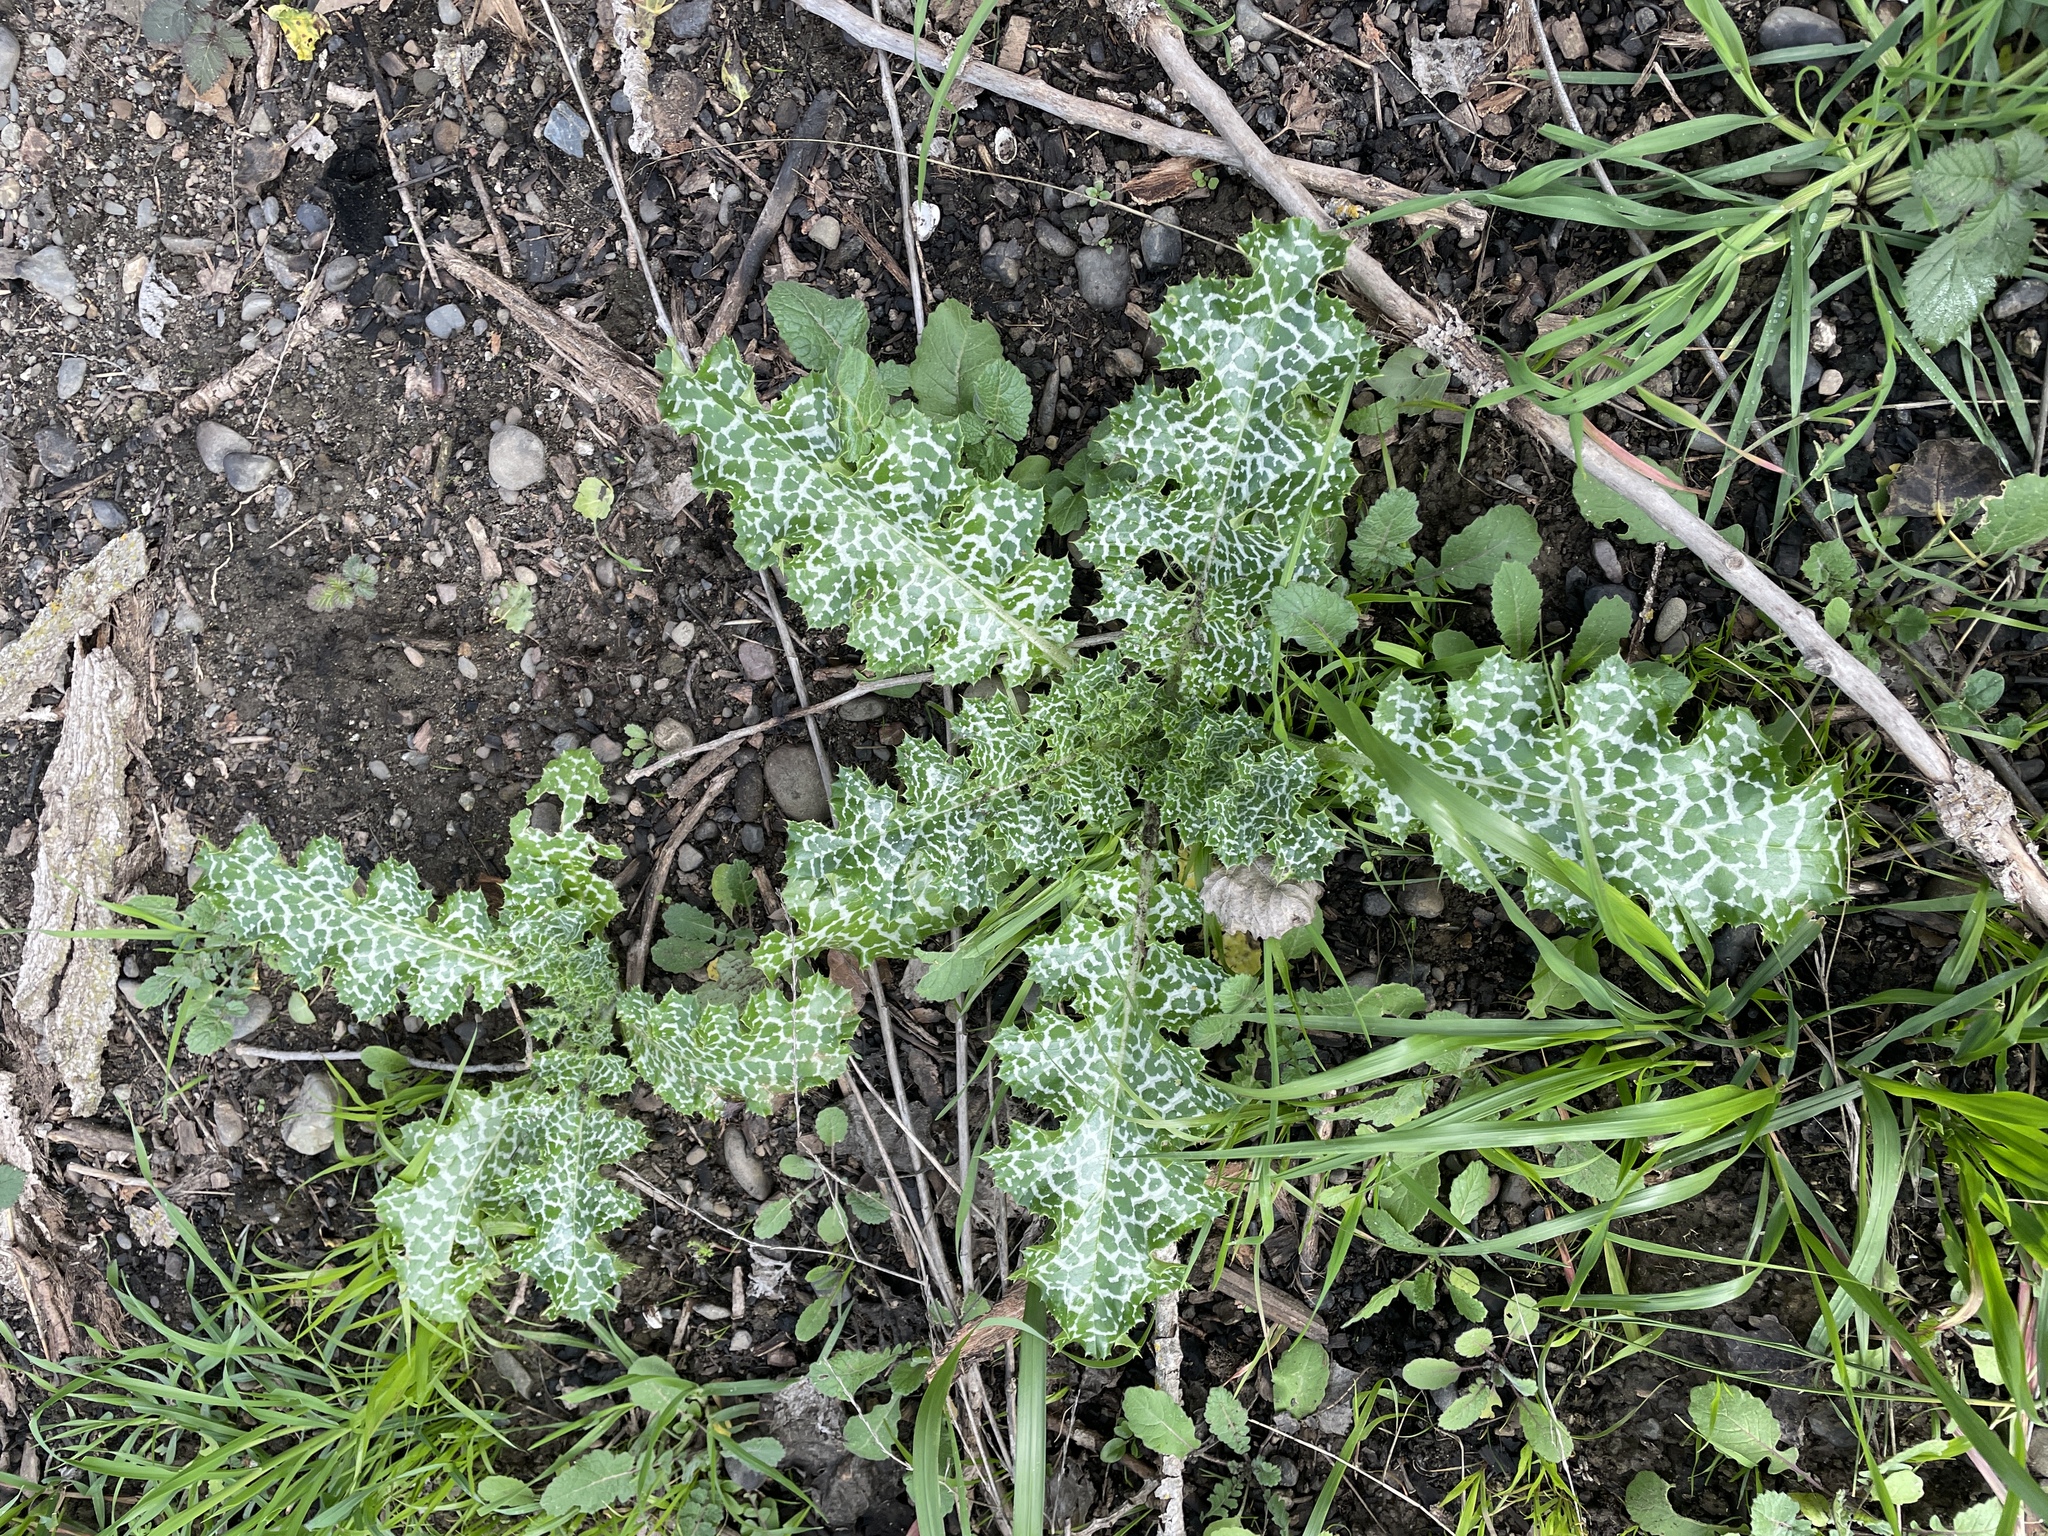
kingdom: Plantae
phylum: Tracheophyta
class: Magnoliopsida
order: Asterales
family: Asteraceae
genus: Silybum
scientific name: Silybum marianum
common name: Milk thistle
